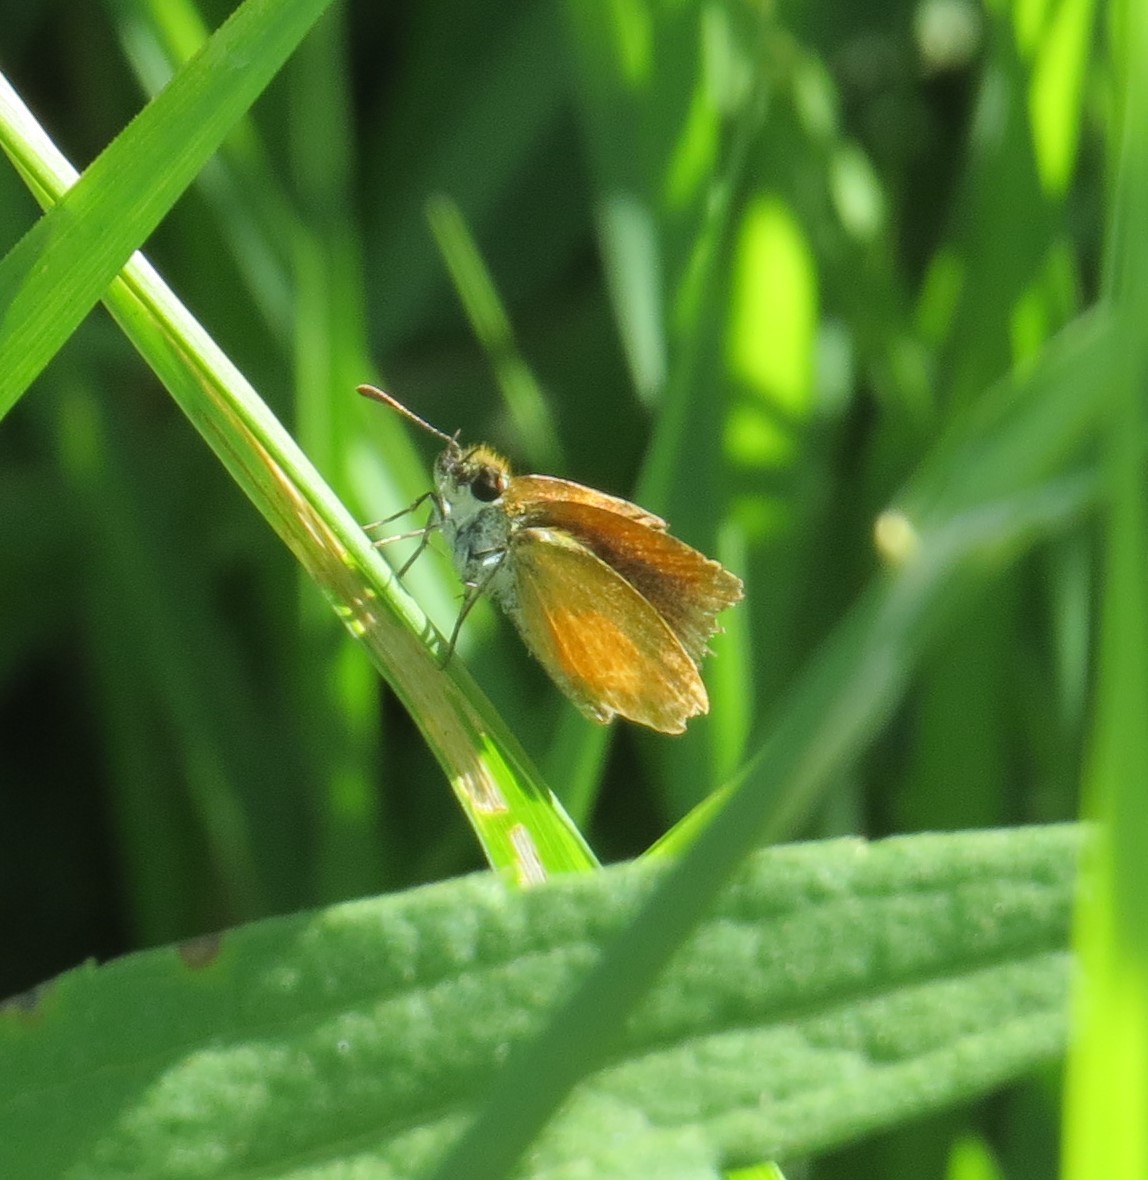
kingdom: Animalia
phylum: Arthropoda
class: Insecta
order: Lepidoptera
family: Hesperiidae
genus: Ancyloxypha
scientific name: Ancyloxypha numitor
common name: Least skipper
